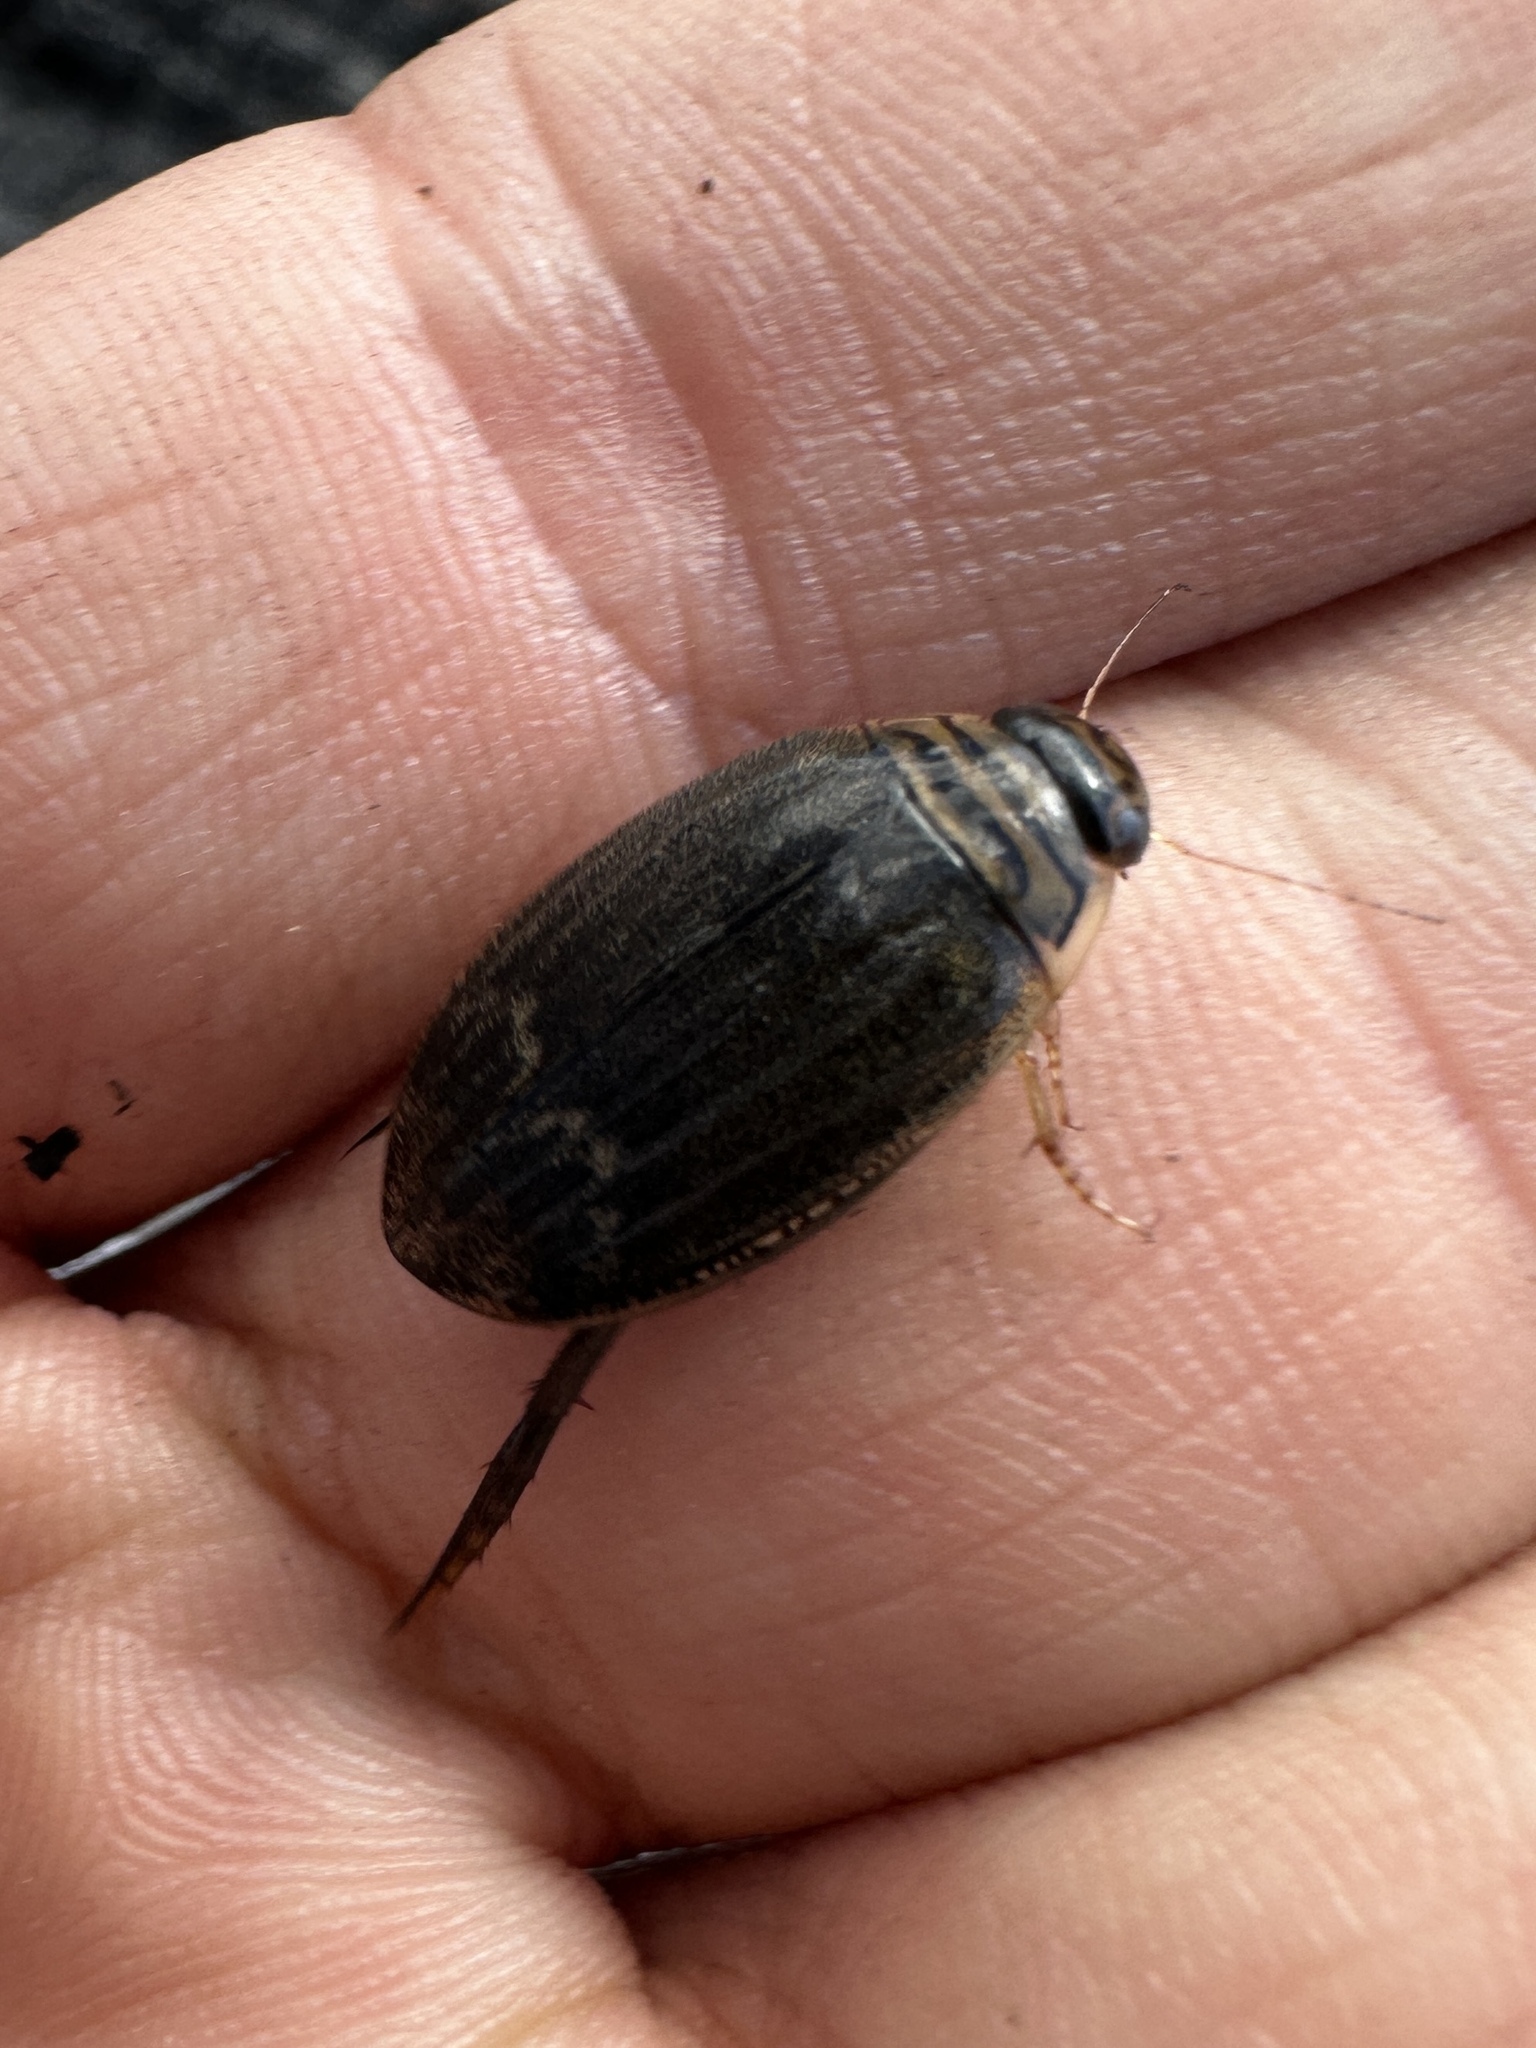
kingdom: Animalia
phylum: Arthropoda
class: Insecta
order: Coleoptera
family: Dytiscidae
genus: Acilius
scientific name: Acilius abbreviatus
